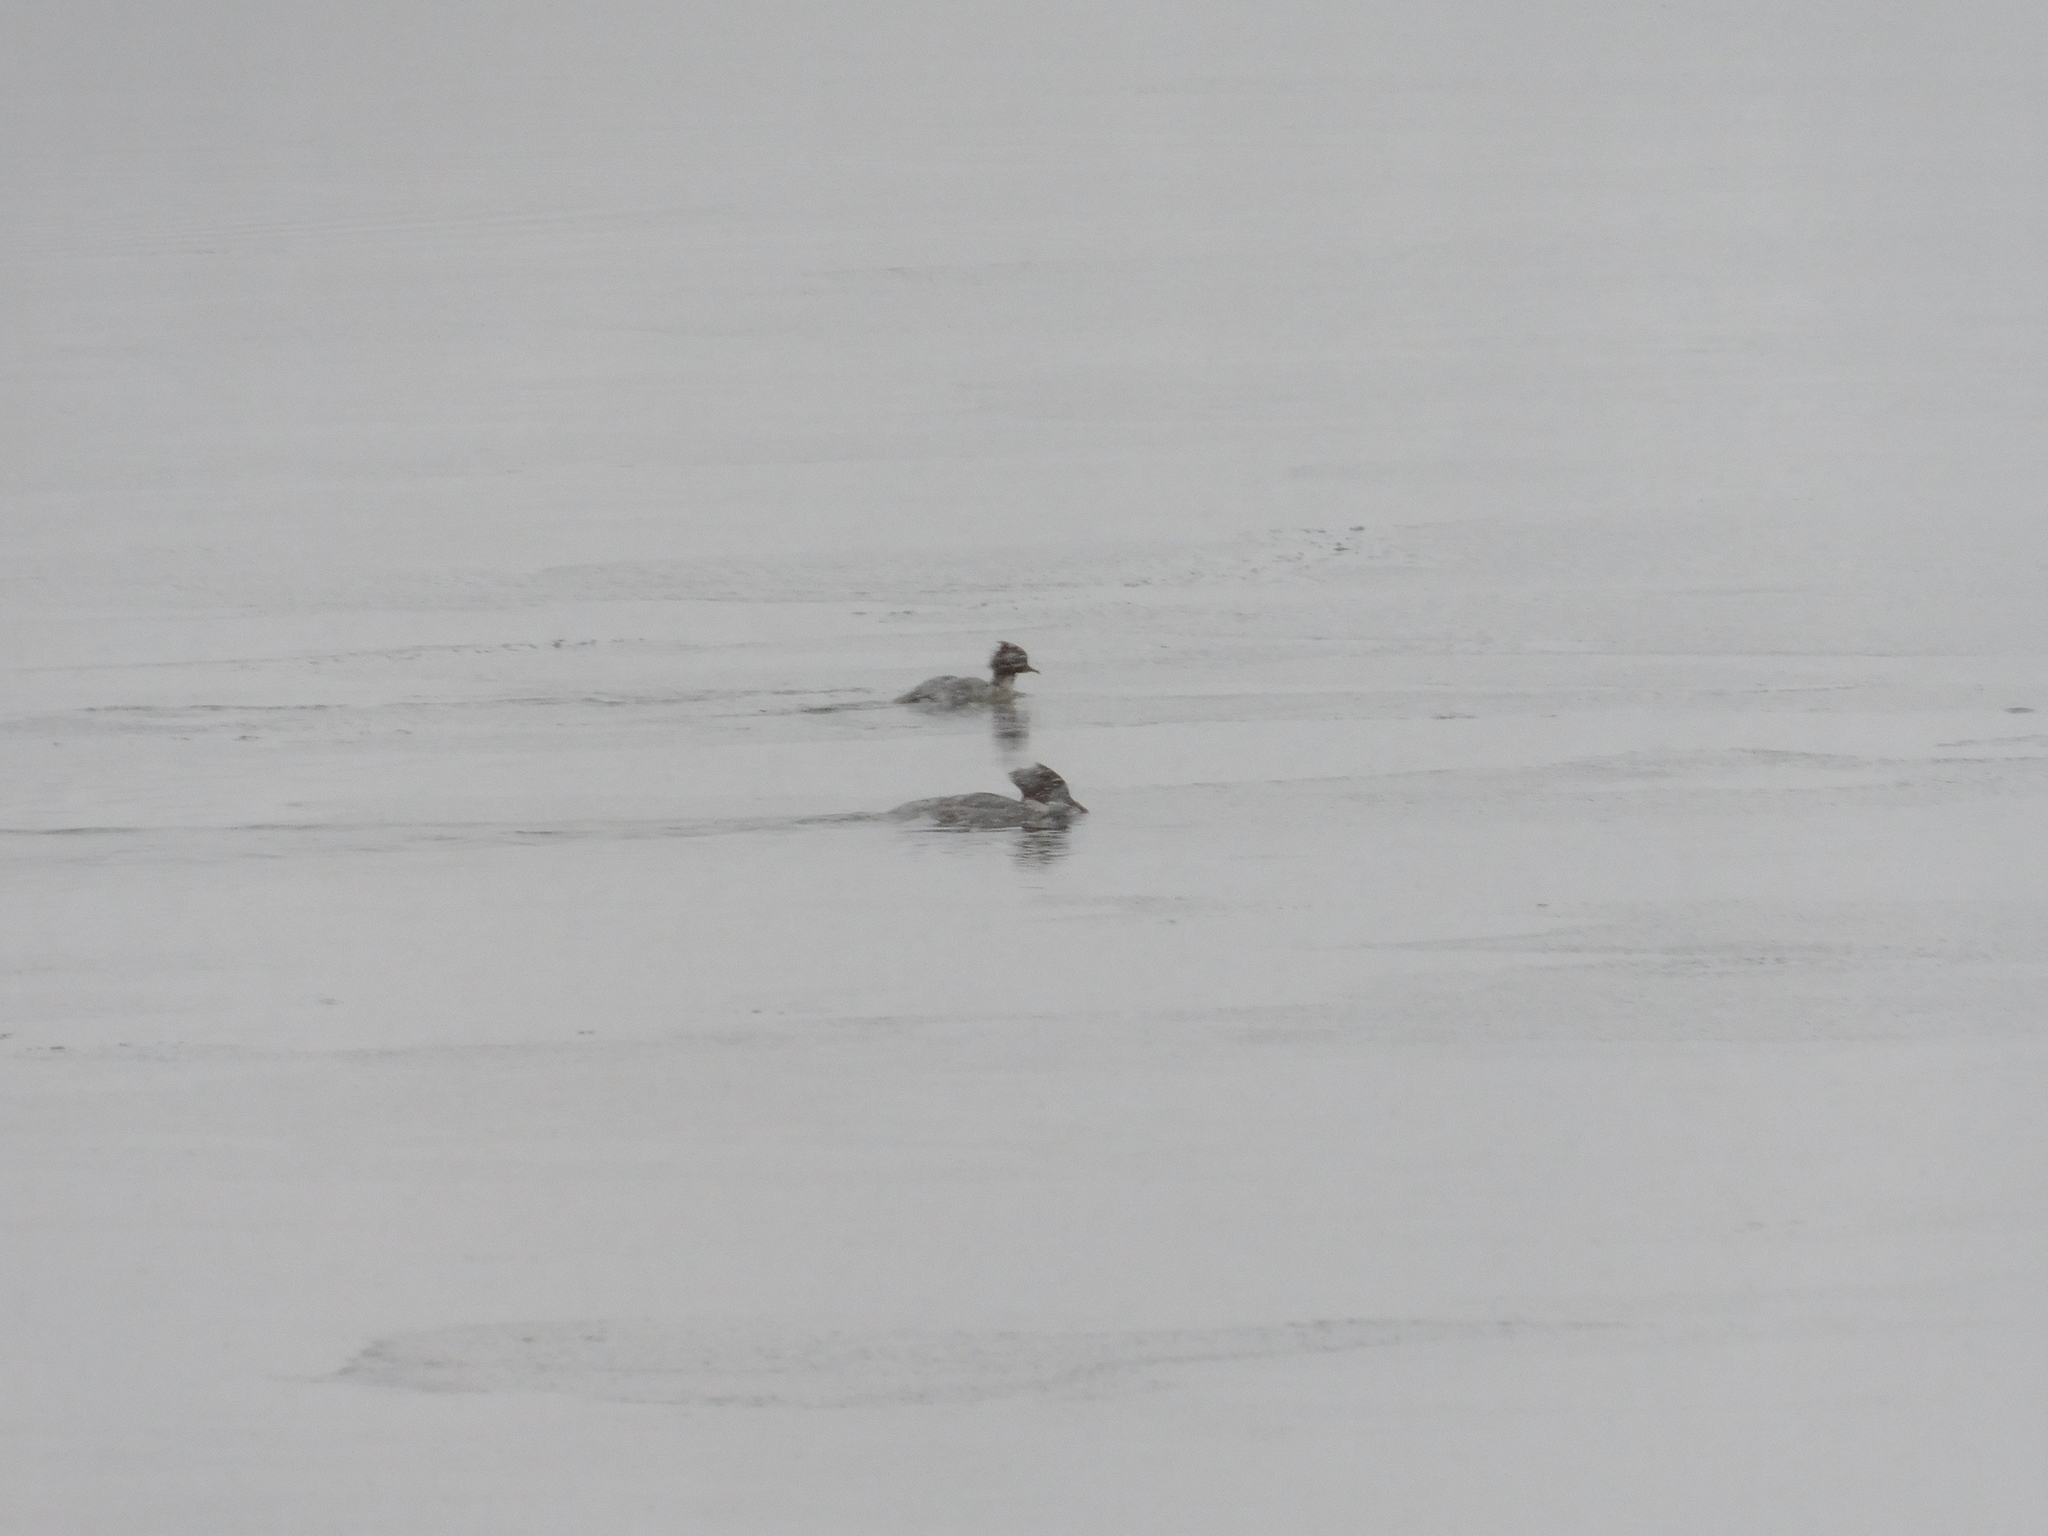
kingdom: Animalia
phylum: Chordata
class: Aves
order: Anseriformes
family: Anatidae
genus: Mergus
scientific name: Mergus merganser
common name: Common merganser
